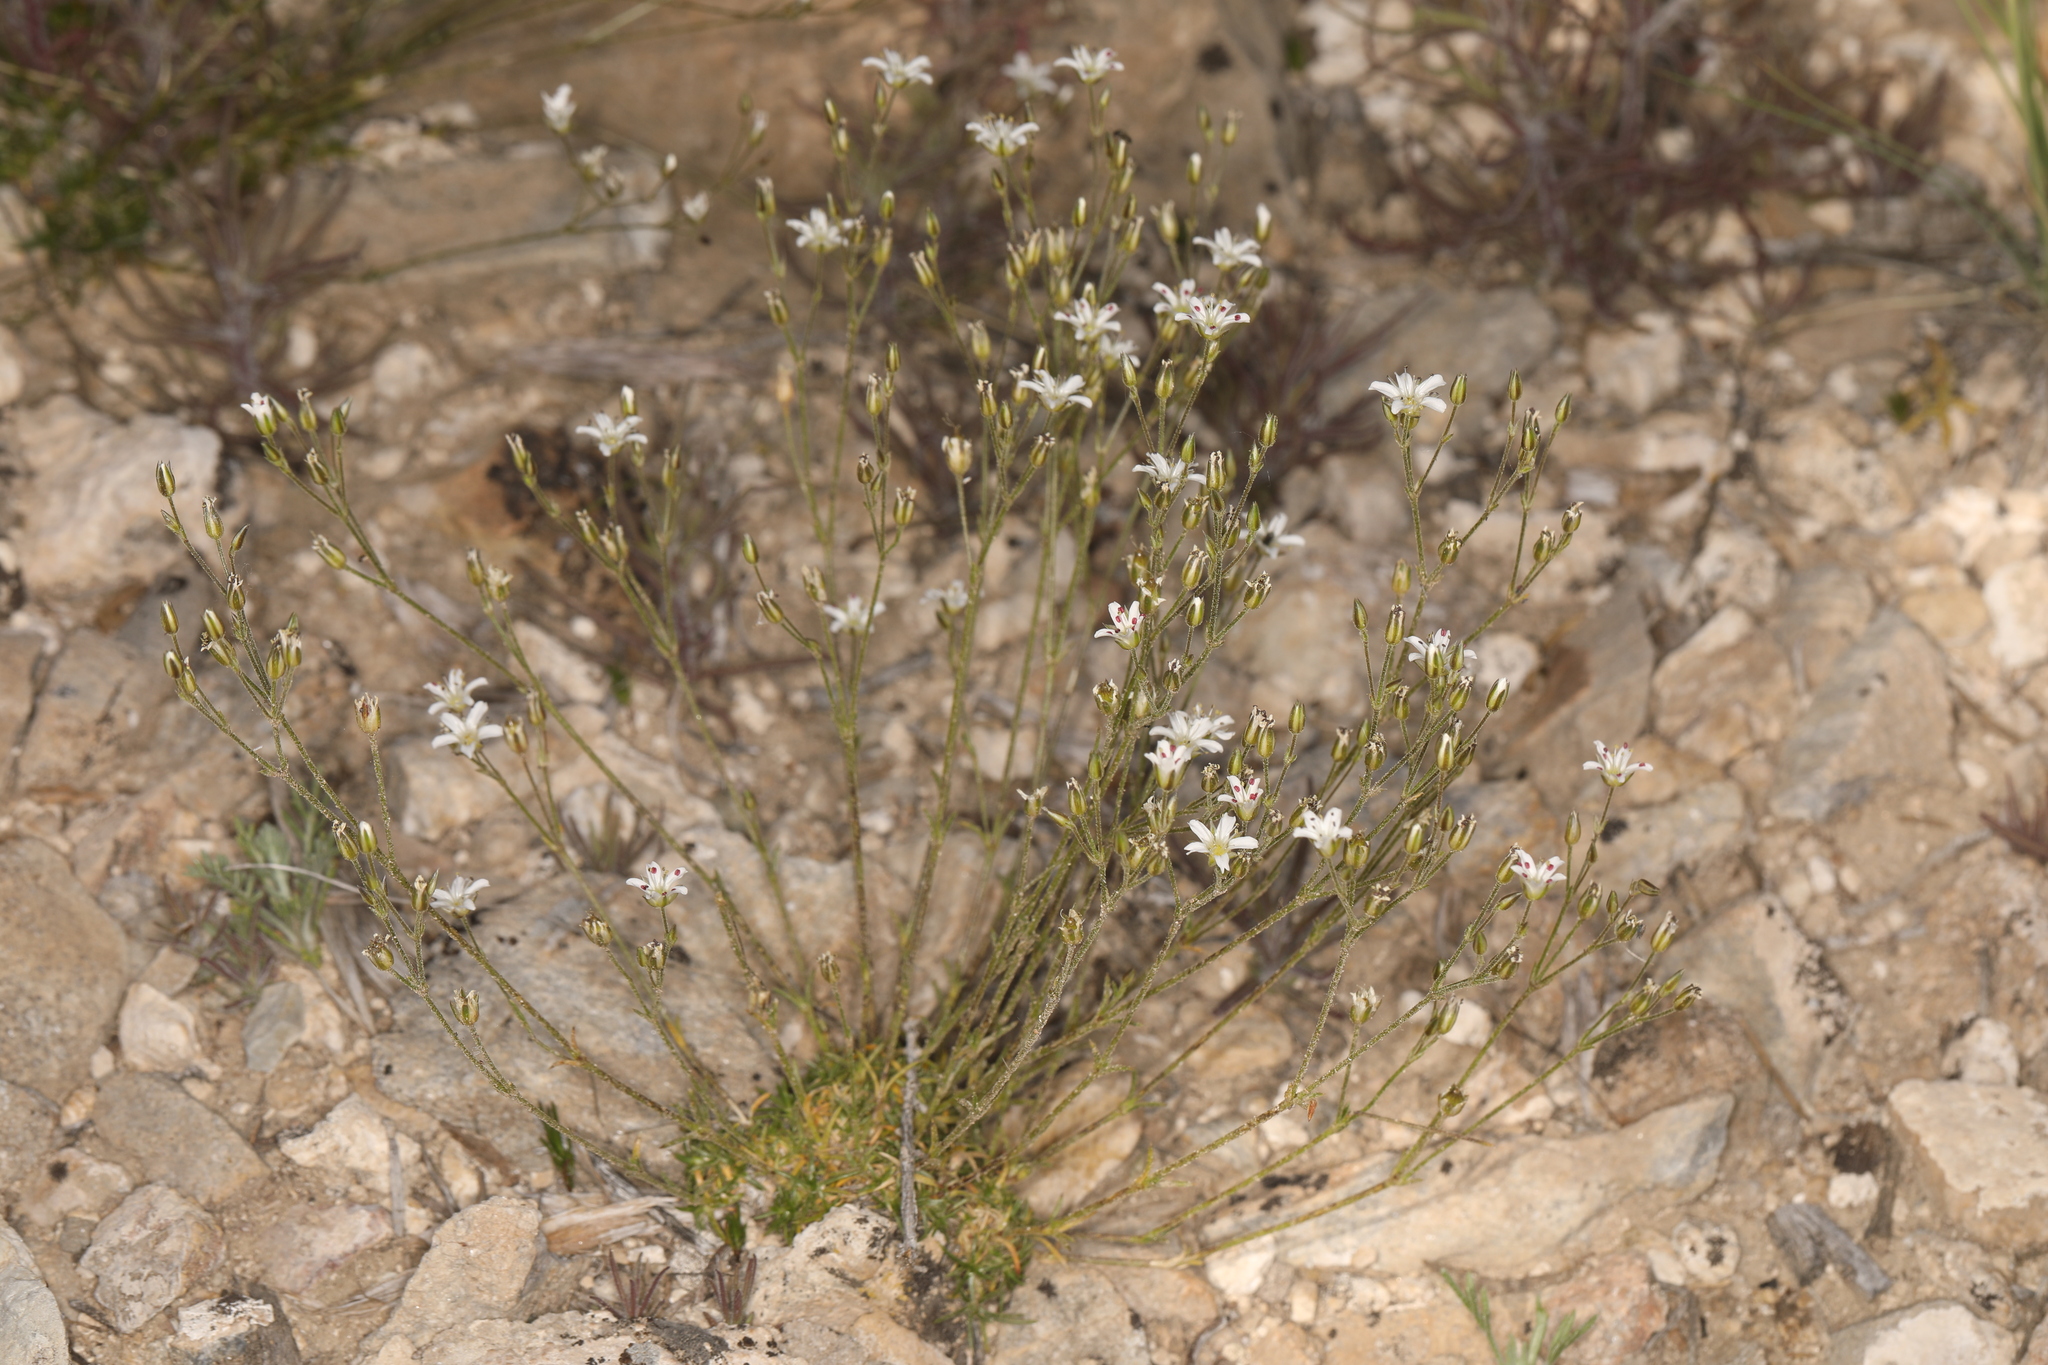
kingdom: Plantae
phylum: Tracheophyta
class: Magnoliopsida
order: Caryophyllales
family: Caryophyllaceae
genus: Eremogone
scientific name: Eremogone kingii
